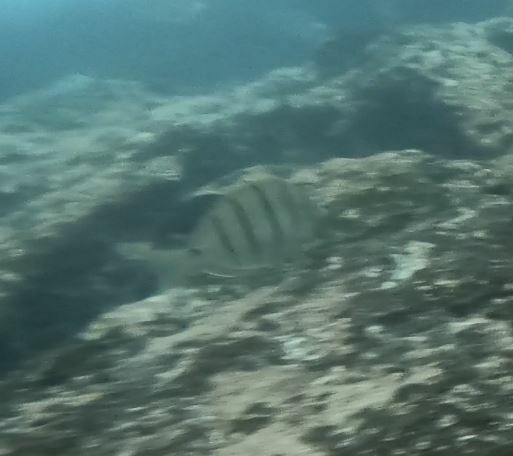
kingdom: Animalia
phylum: Chordata
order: Perciformes
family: Acanthuridae
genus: Acanthurus
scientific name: Acanthurus triostegus
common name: Convict surgeonfish
